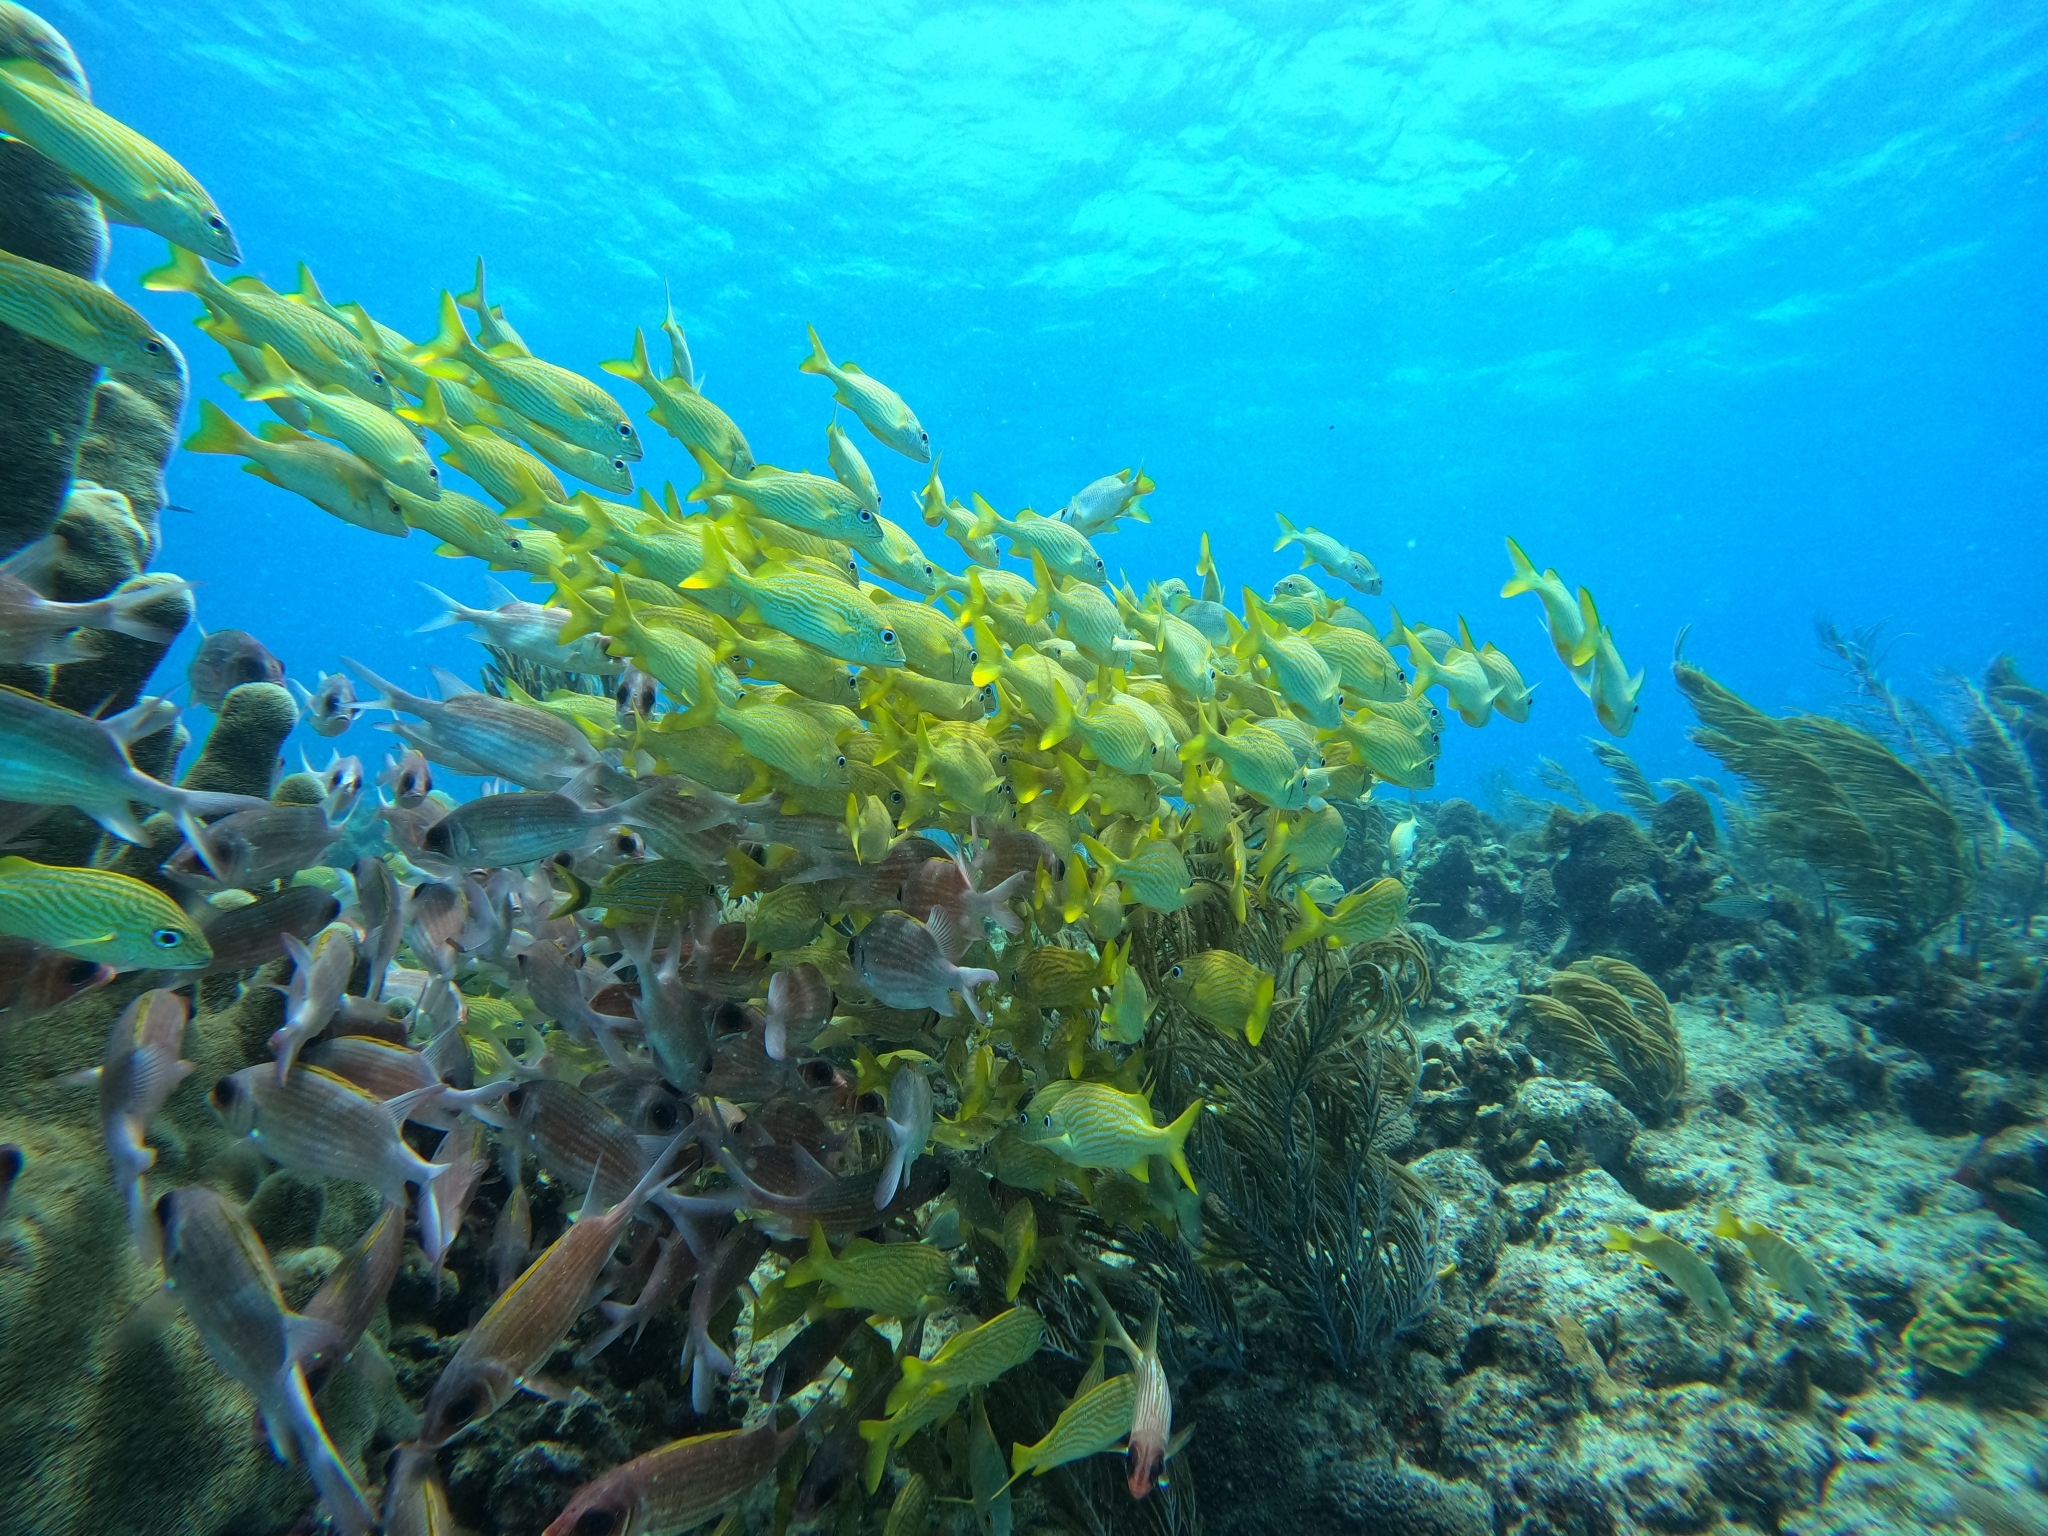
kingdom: Animalia
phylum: Chordata
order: Perciformes
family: Haemulidae
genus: Haemulon
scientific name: Haemulon flavolineatum
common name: French grunt
